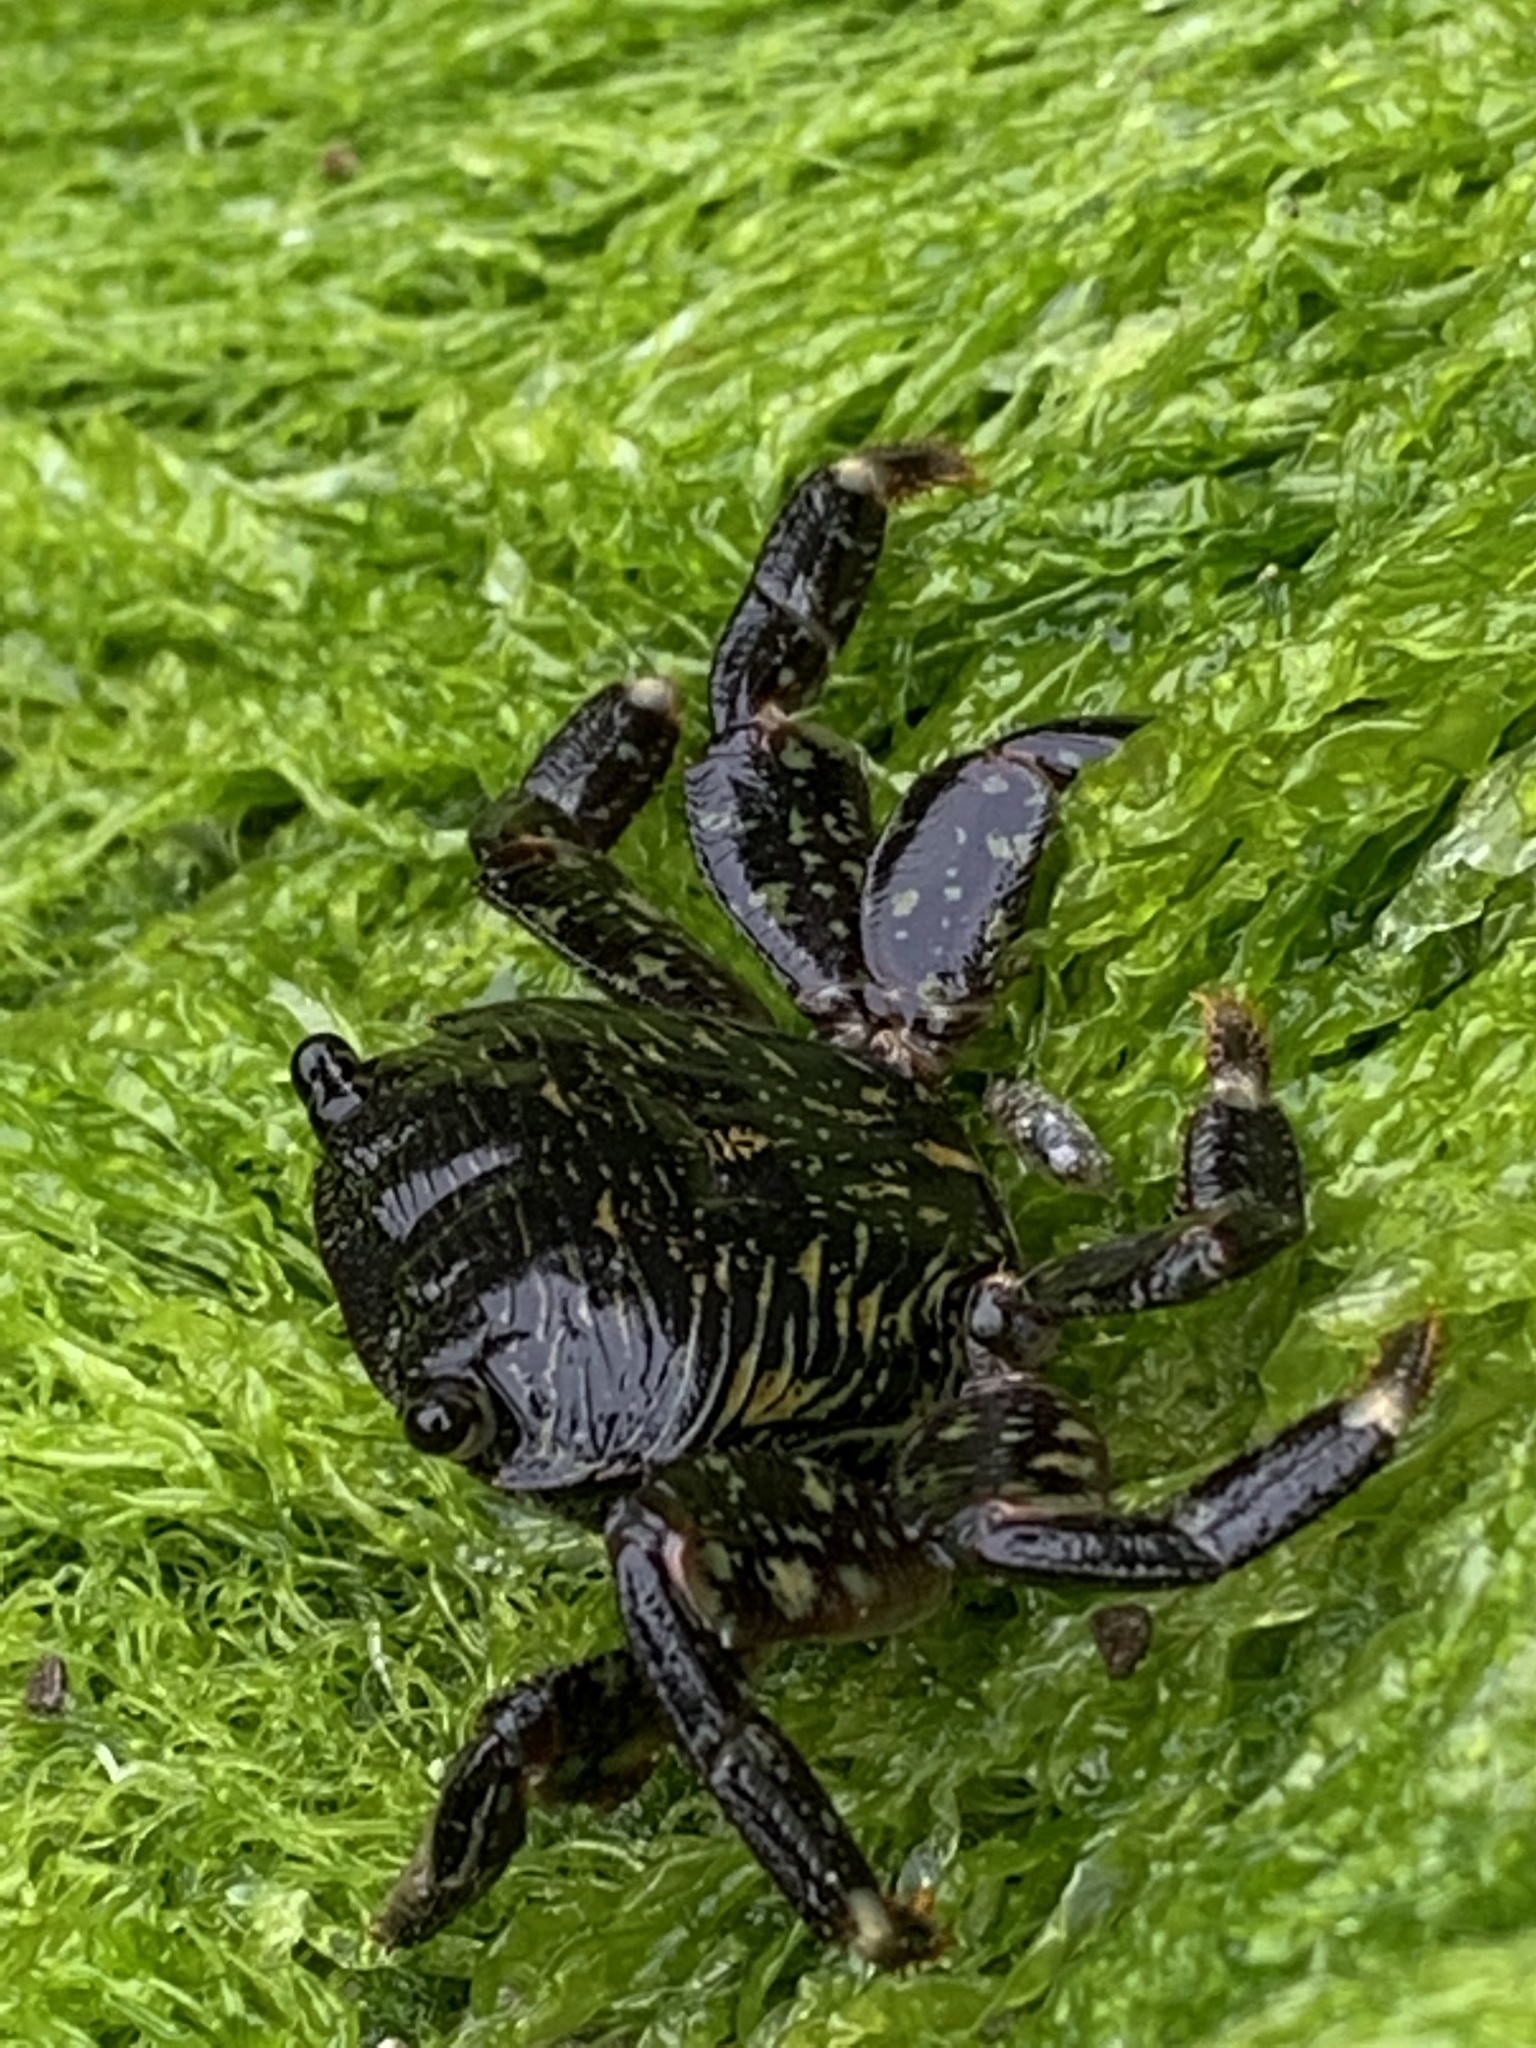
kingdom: Animalia
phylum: Arthropoda
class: Malacostraca
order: Decapoda
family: Grapsidae
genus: Pachygrapsus
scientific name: Pachygrapsus crassipes
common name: Striped shore crab
